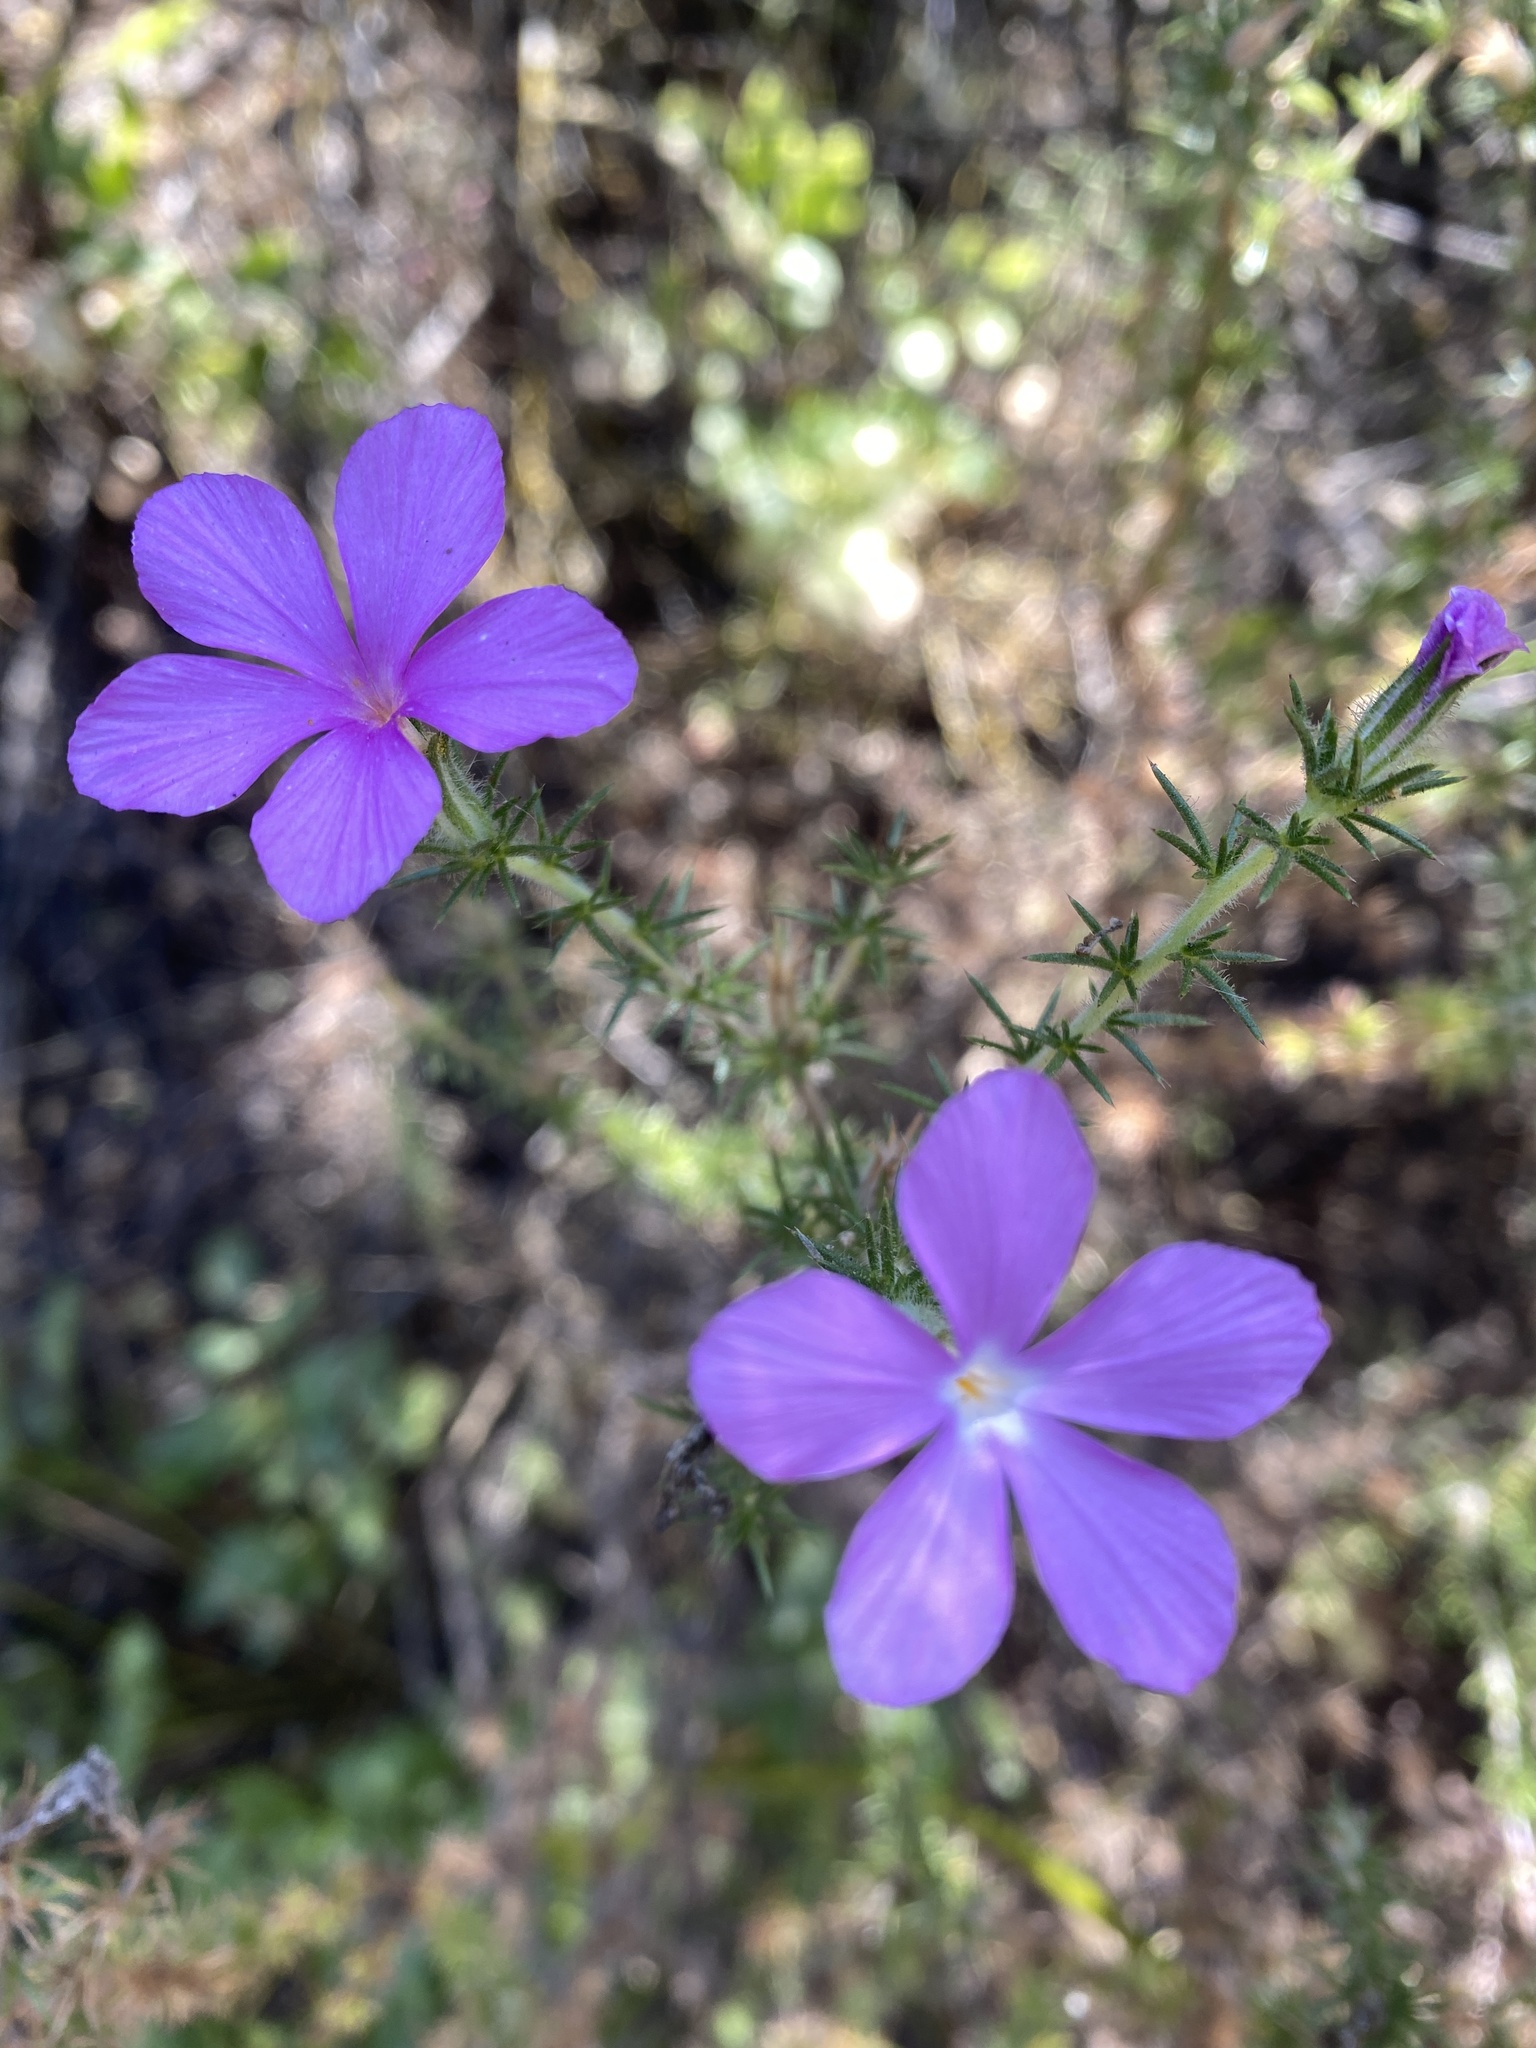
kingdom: Plantae
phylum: Tracheophyta
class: Magnoliopsida
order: Ericales
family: Polemoniaceae
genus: Linanthus
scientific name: Linanthus californicus
